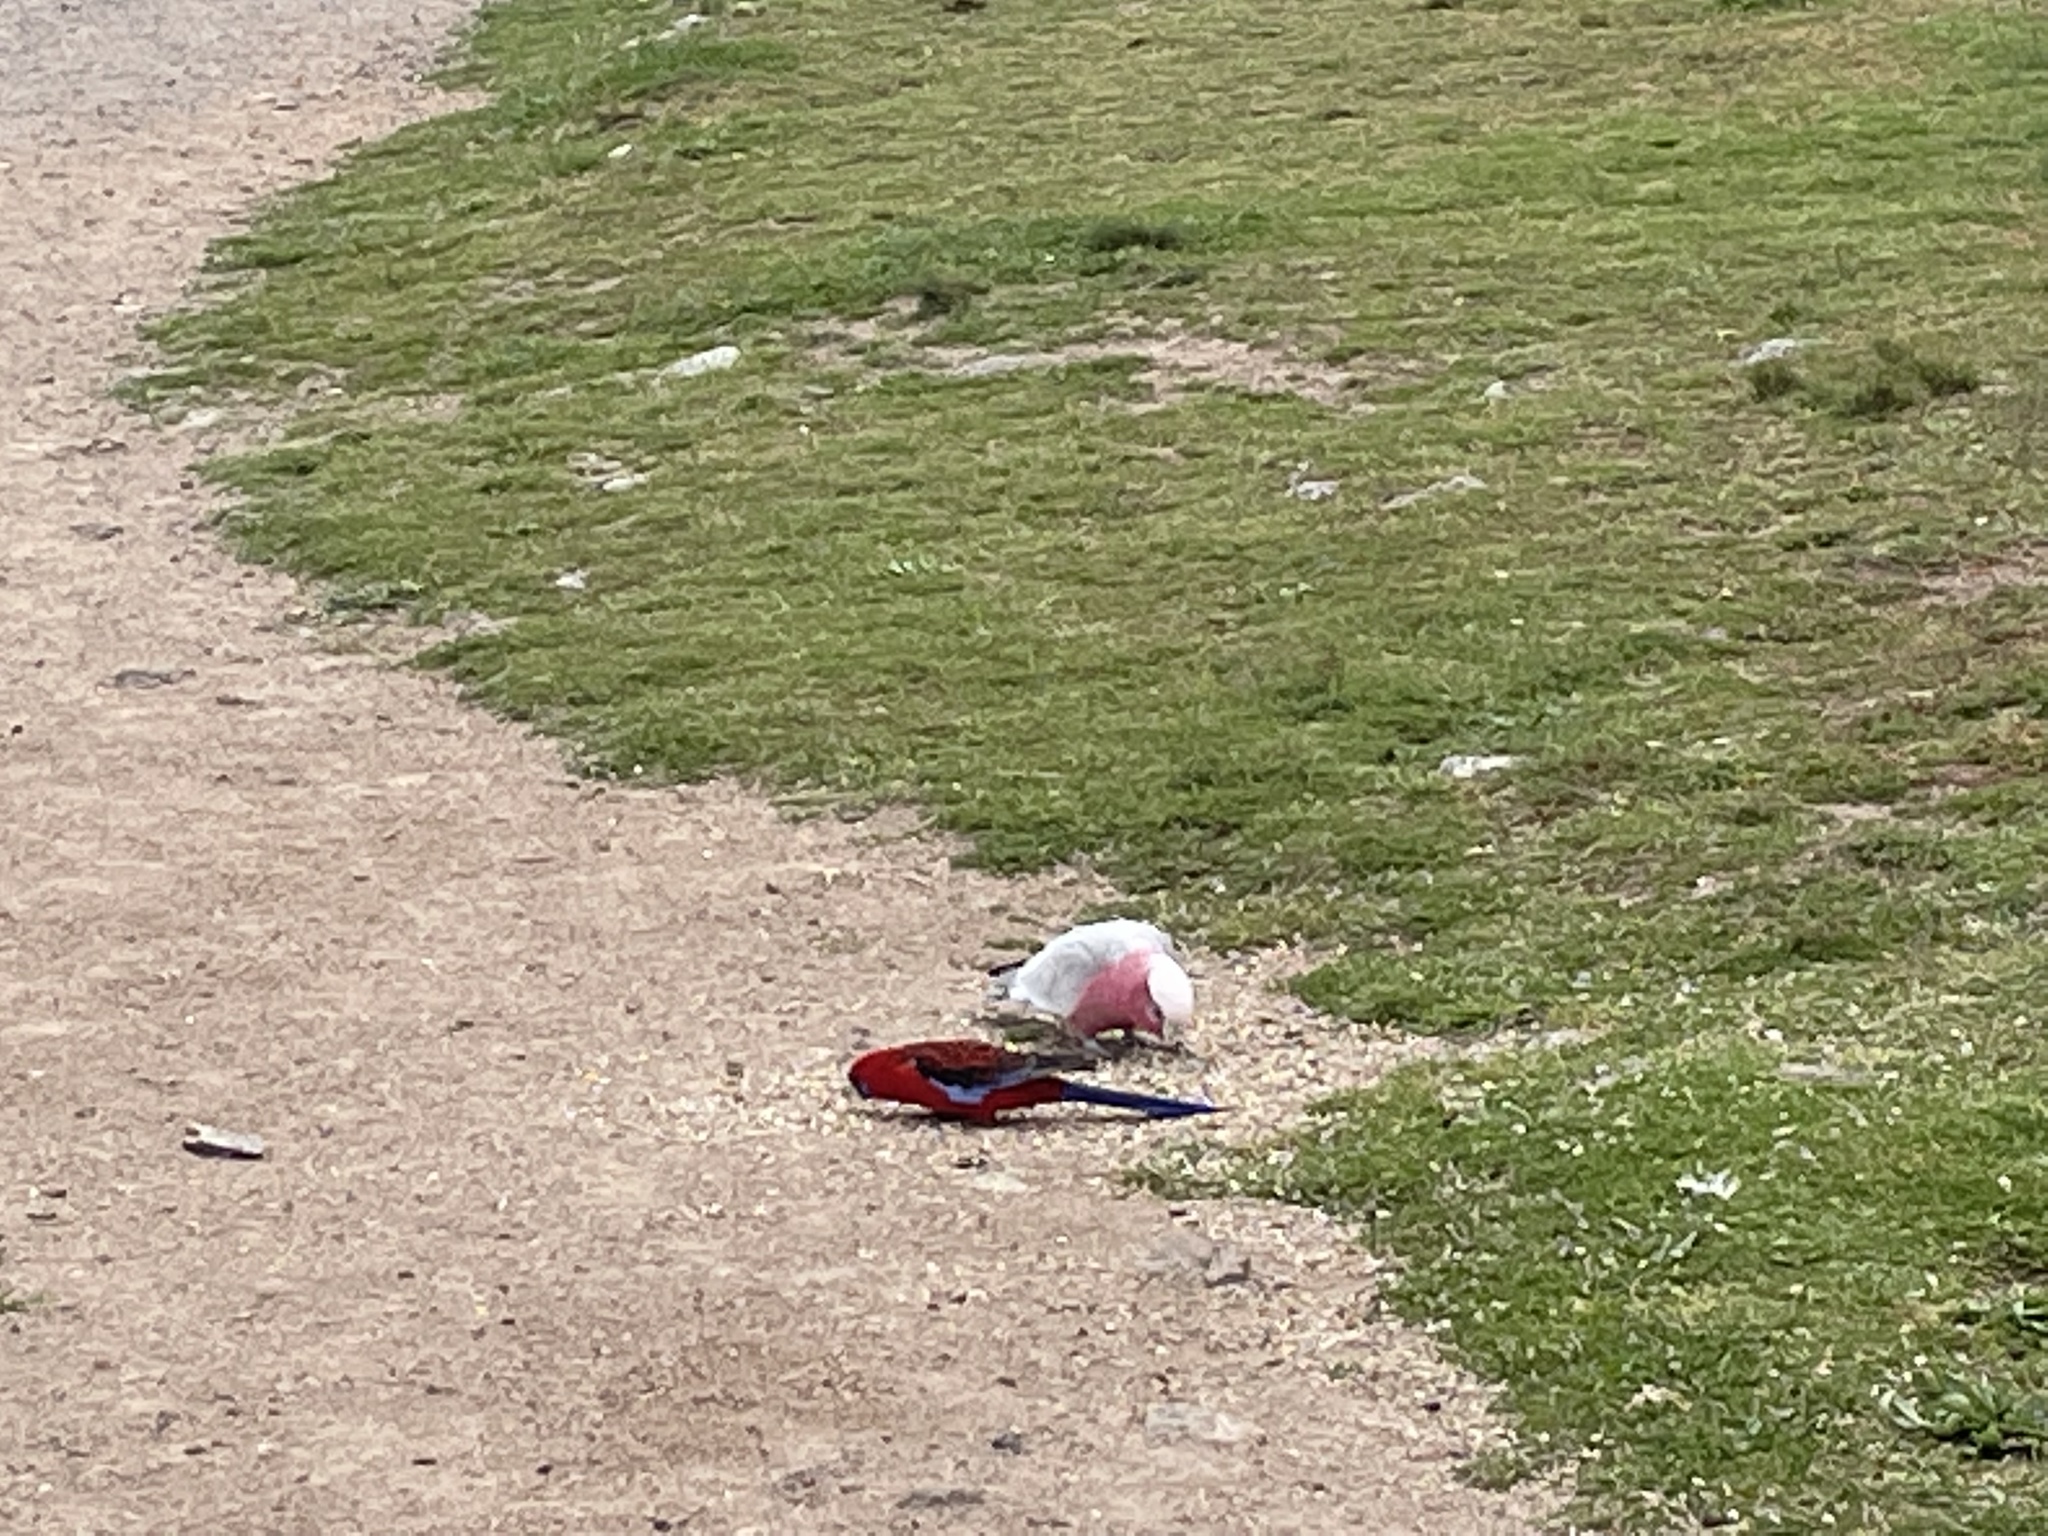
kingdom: Animalia
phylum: Chordata
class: Aves
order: Psittaciformes
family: Psittacidae
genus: Platycercus
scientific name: Platycercus elegans
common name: Crimson rosella
